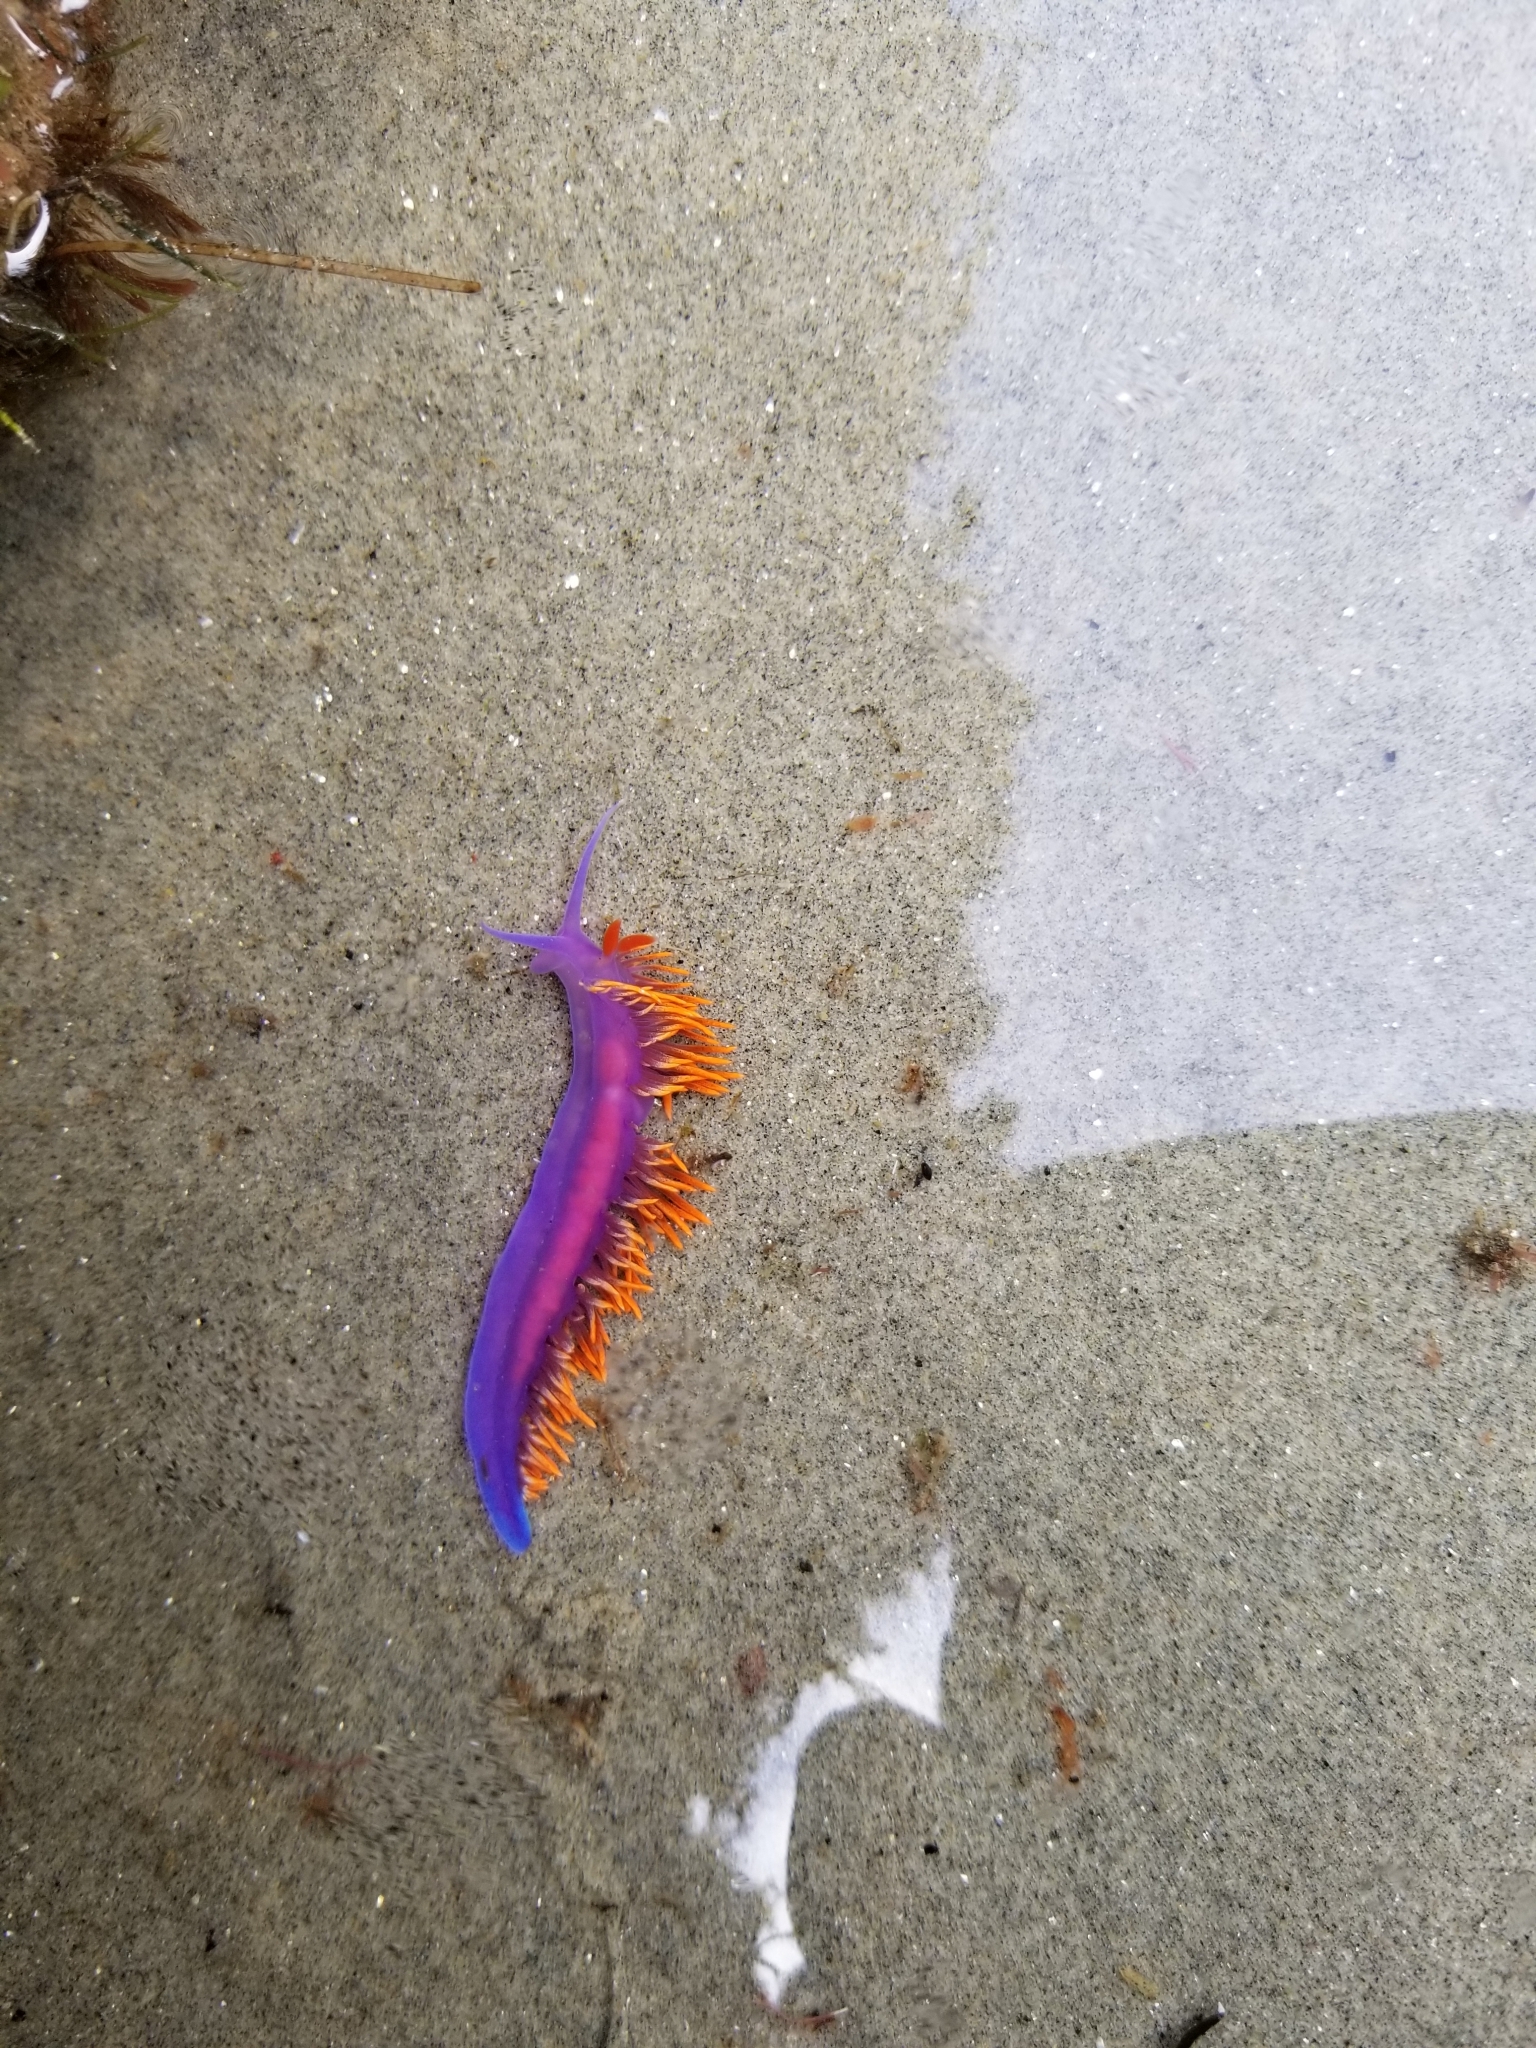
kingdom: Animalia
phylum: Mollusca
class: Gastropoda
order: Nudibranchia
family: Flabellinopsidae
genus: Flabellinopsis
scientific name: Flabellinopsis iodinea
